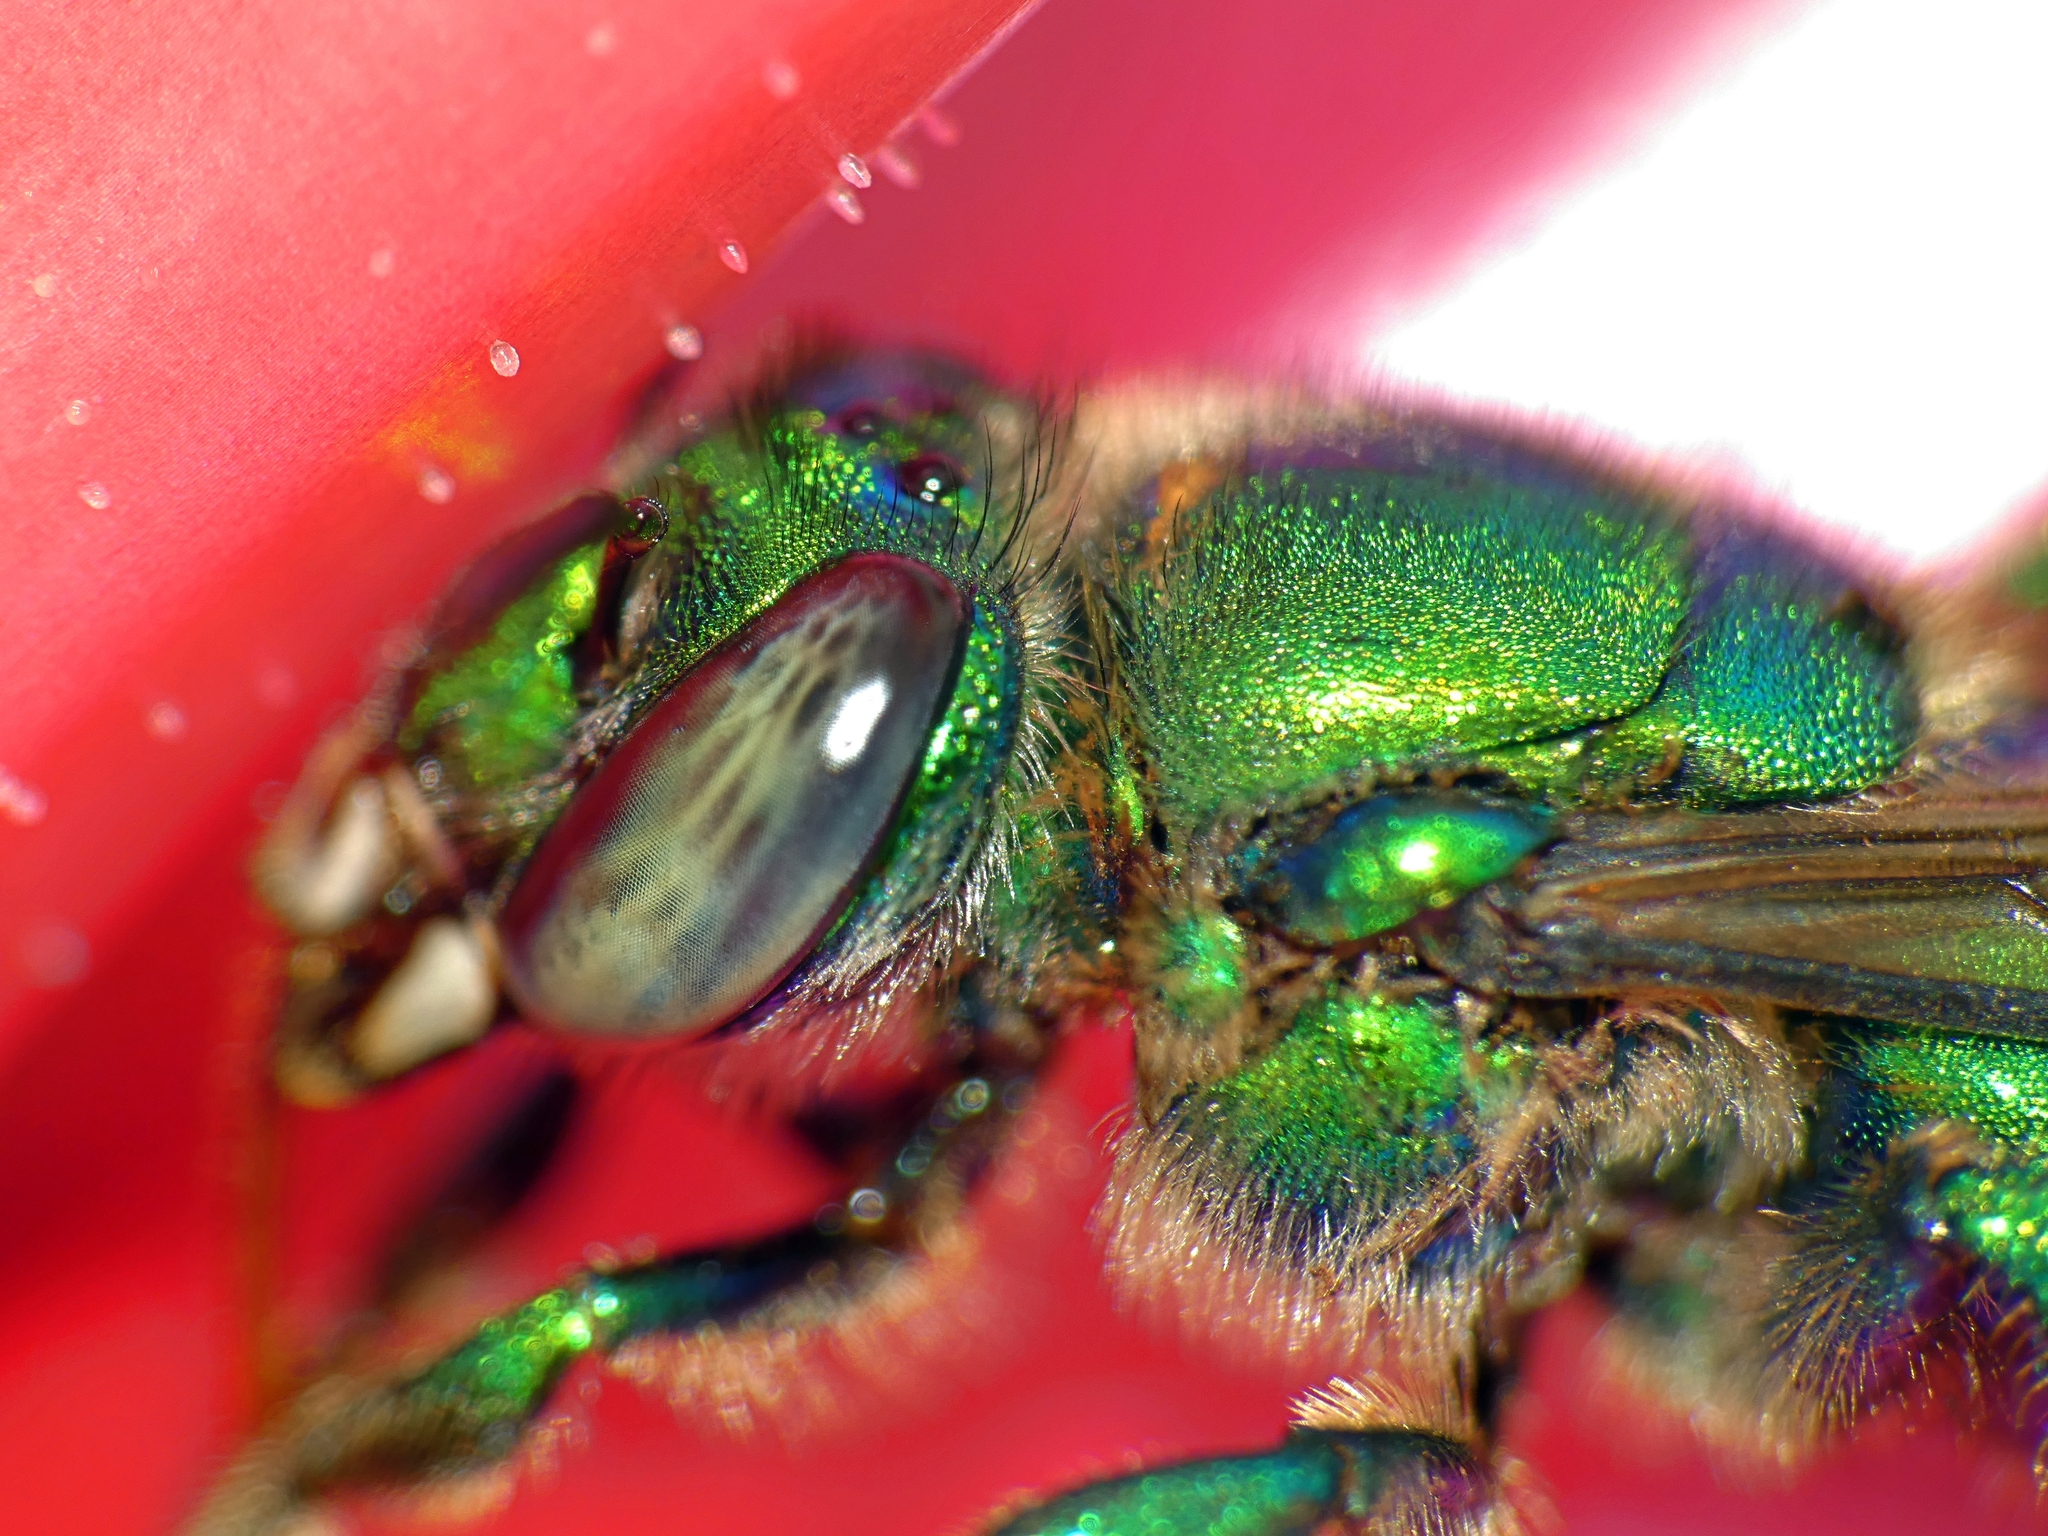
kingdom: Animalia
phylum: Arthropoda
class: Insecta
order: Hymenoptera
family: Apidae
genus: Euglossa
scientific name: Euglossa dilemma
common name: Green orchid bee
